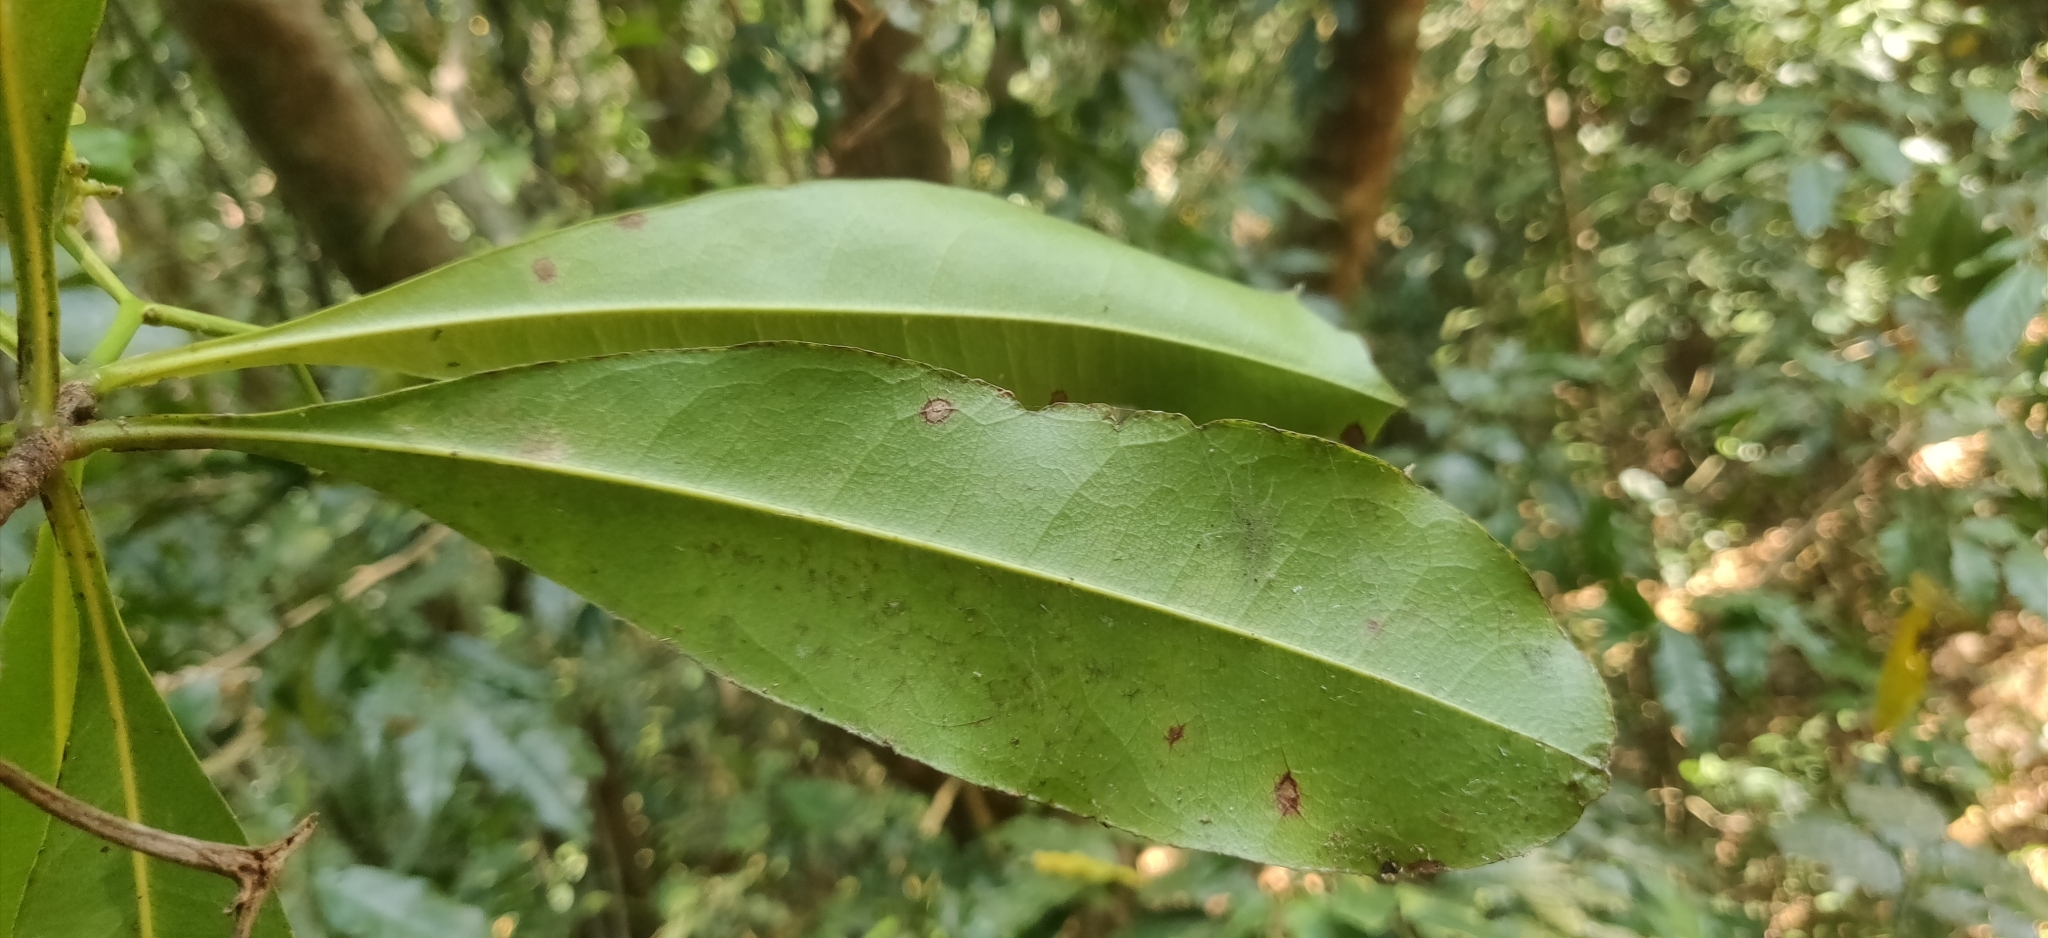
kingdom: Plantae
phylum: Tracheophyta
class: Magnoliopsida
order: Caryophyllales
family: Ancistrocladaceae
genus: Ancistrocladus
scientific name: Ancistrocladus heyneanus
